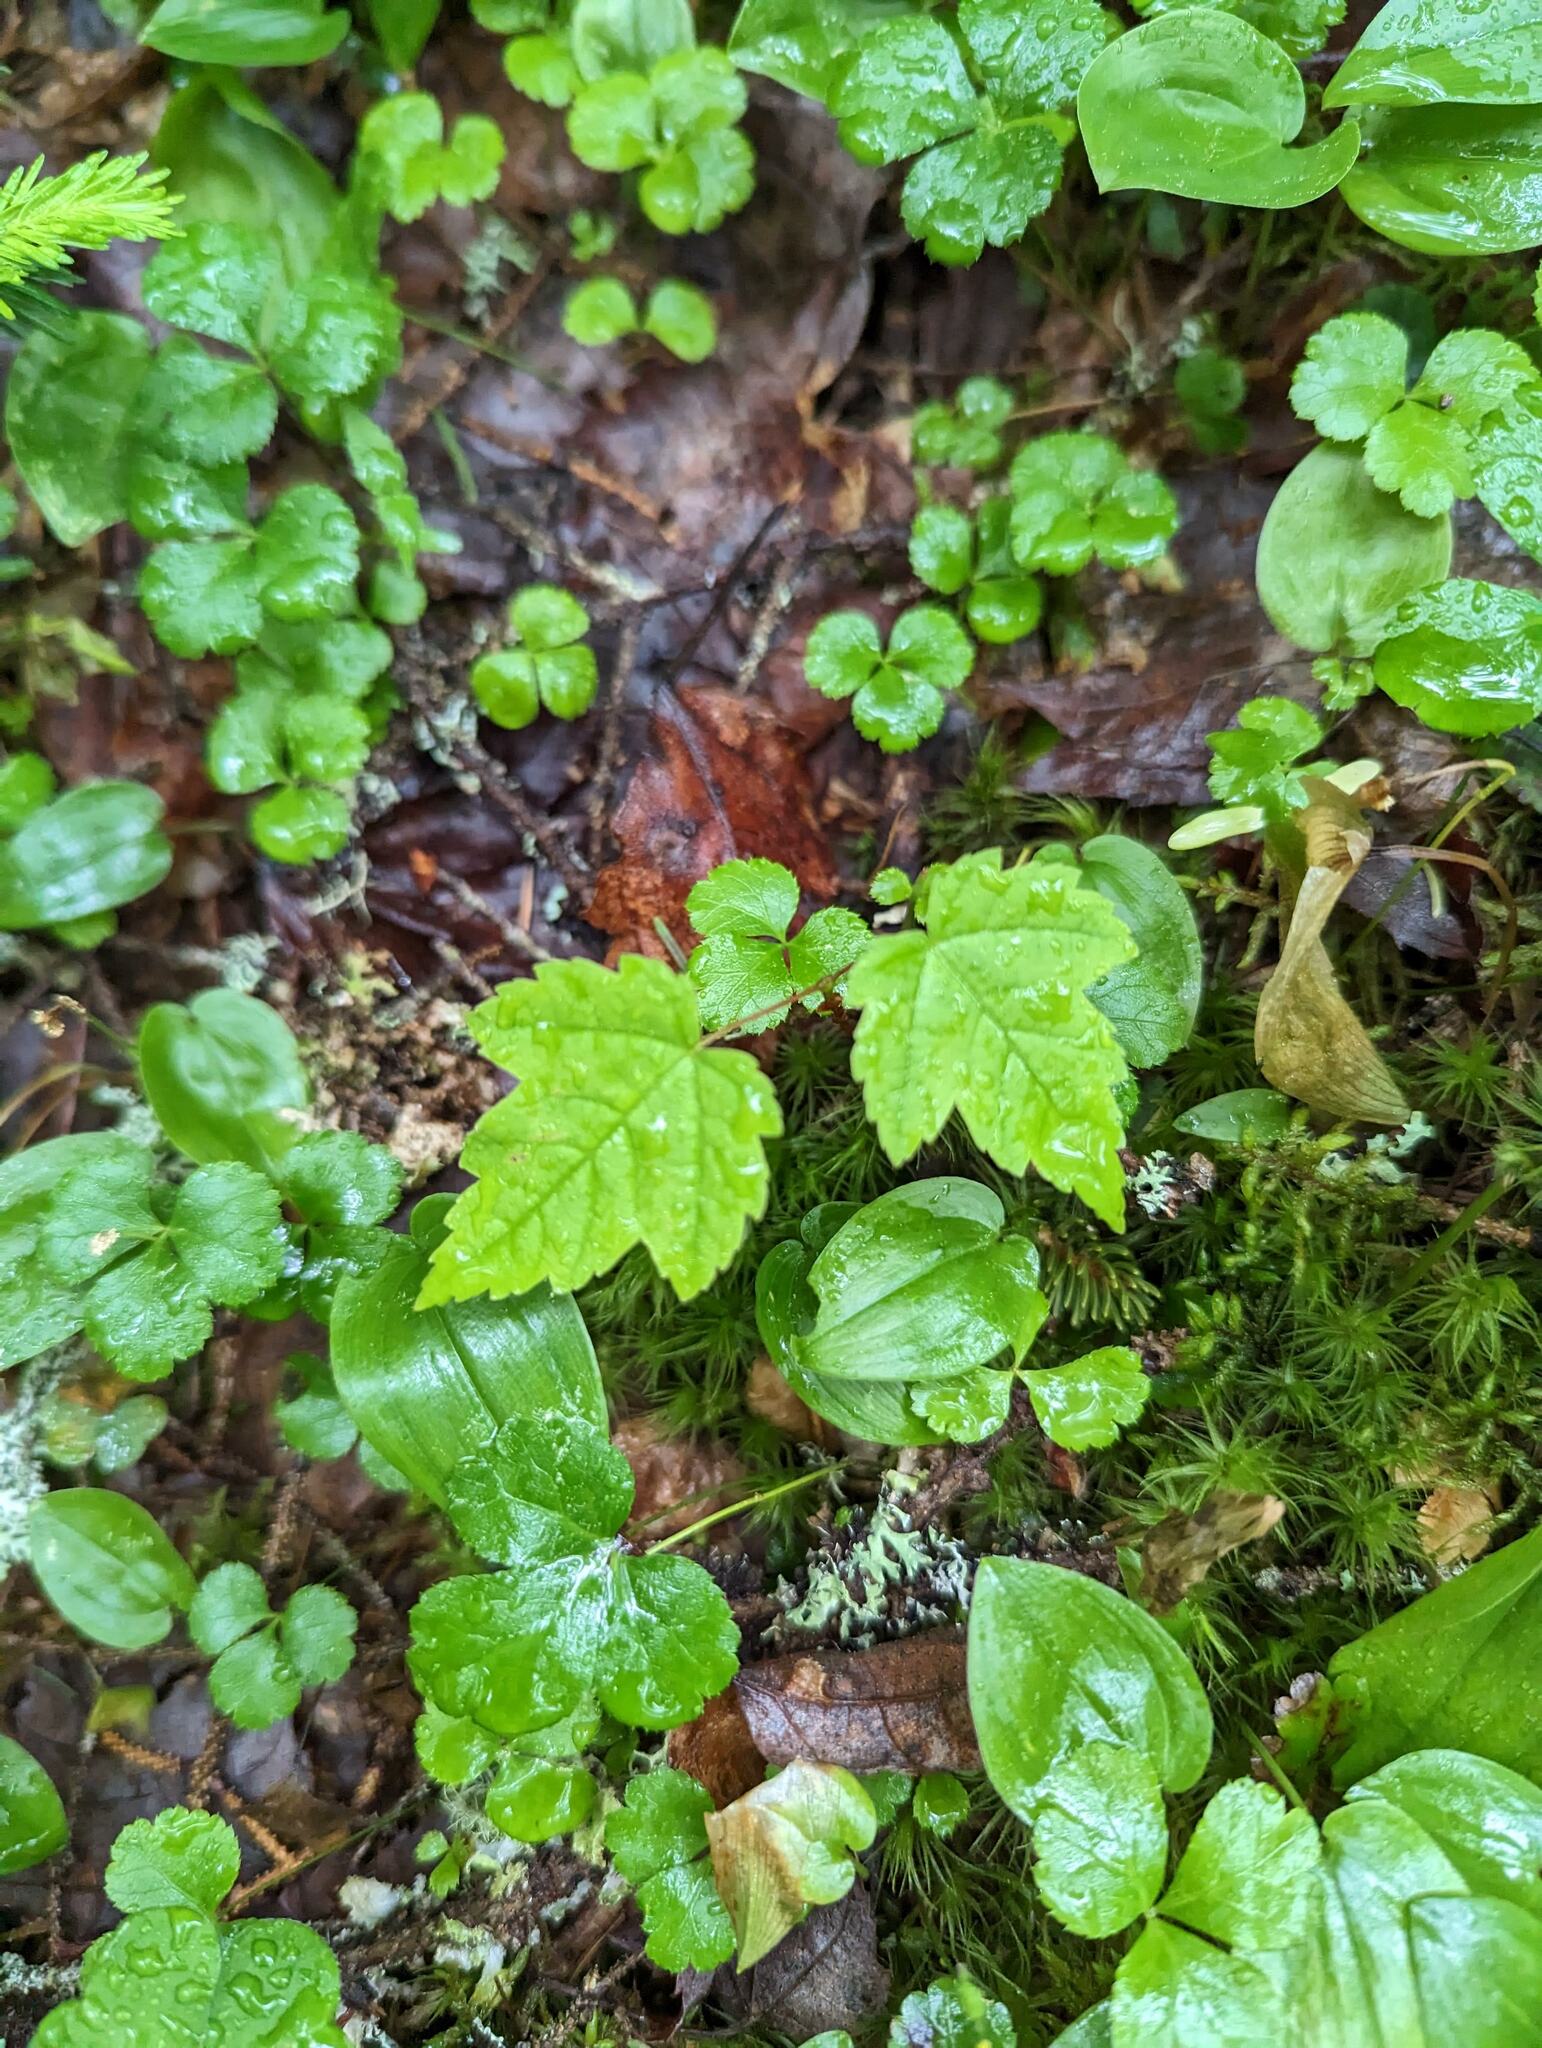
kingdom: Plantae
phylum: Tracheophyta
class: Magnoliopsida
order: Sapindales
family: Sapindaceae
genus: Acer
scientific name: Acer rubrum
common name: Red maple
